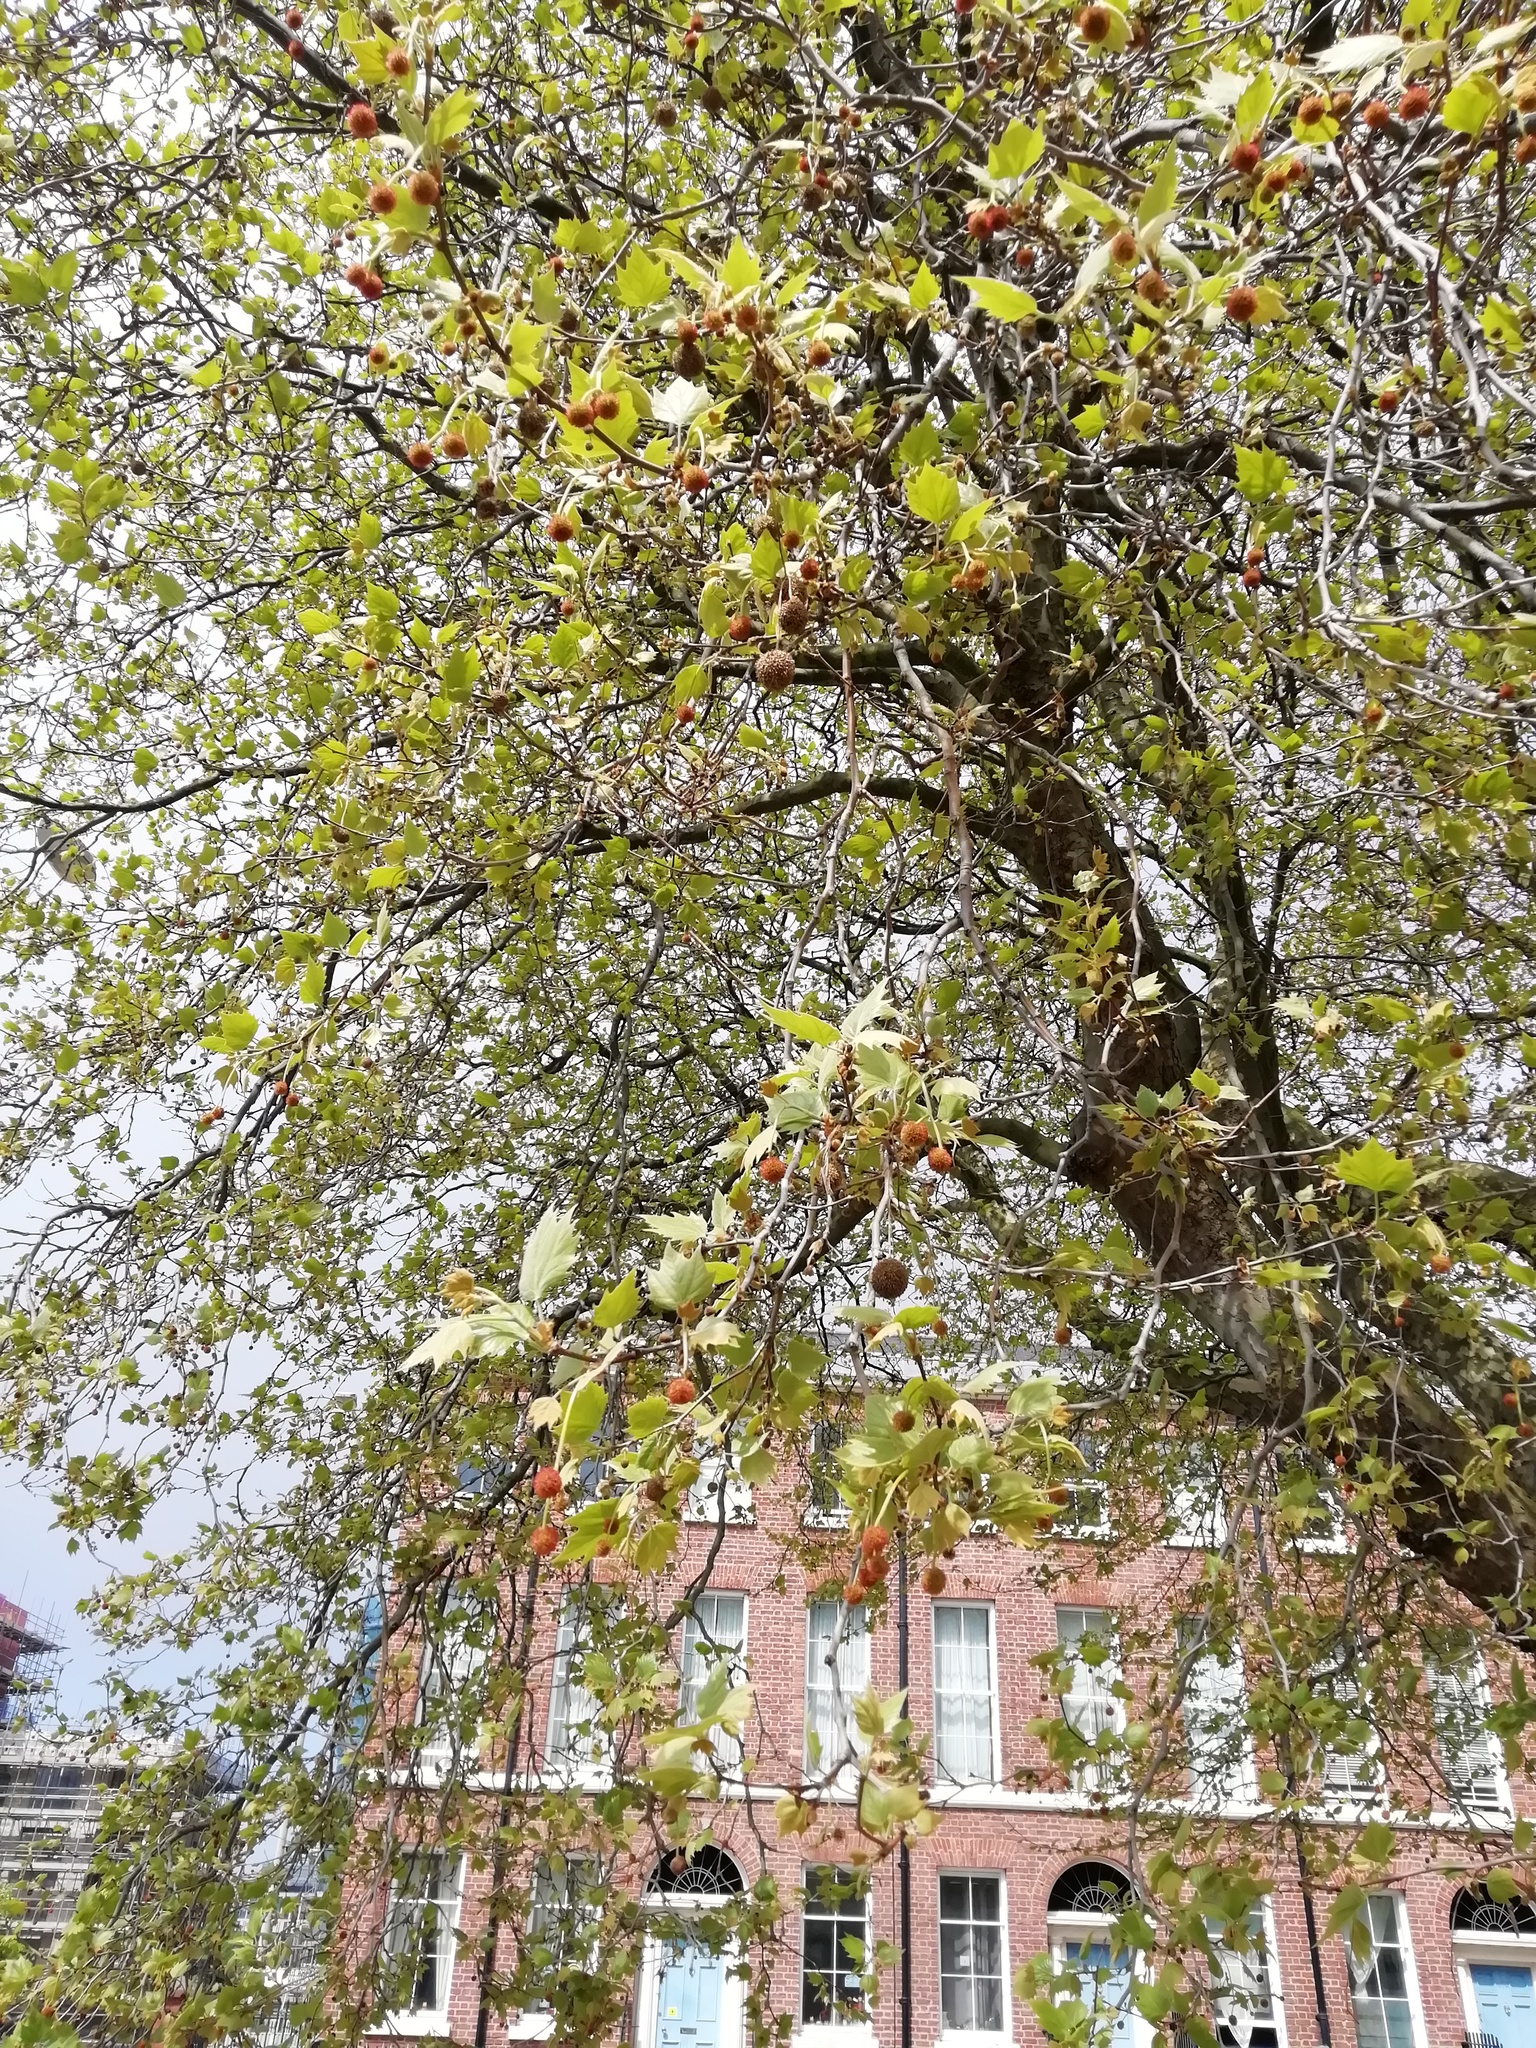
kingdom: Plantae
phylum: Tracheophyta
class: Magnoliopsida
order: Proteales
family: Platanaceae
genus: Platanus
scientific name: Platanus hispanica
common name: London plane
